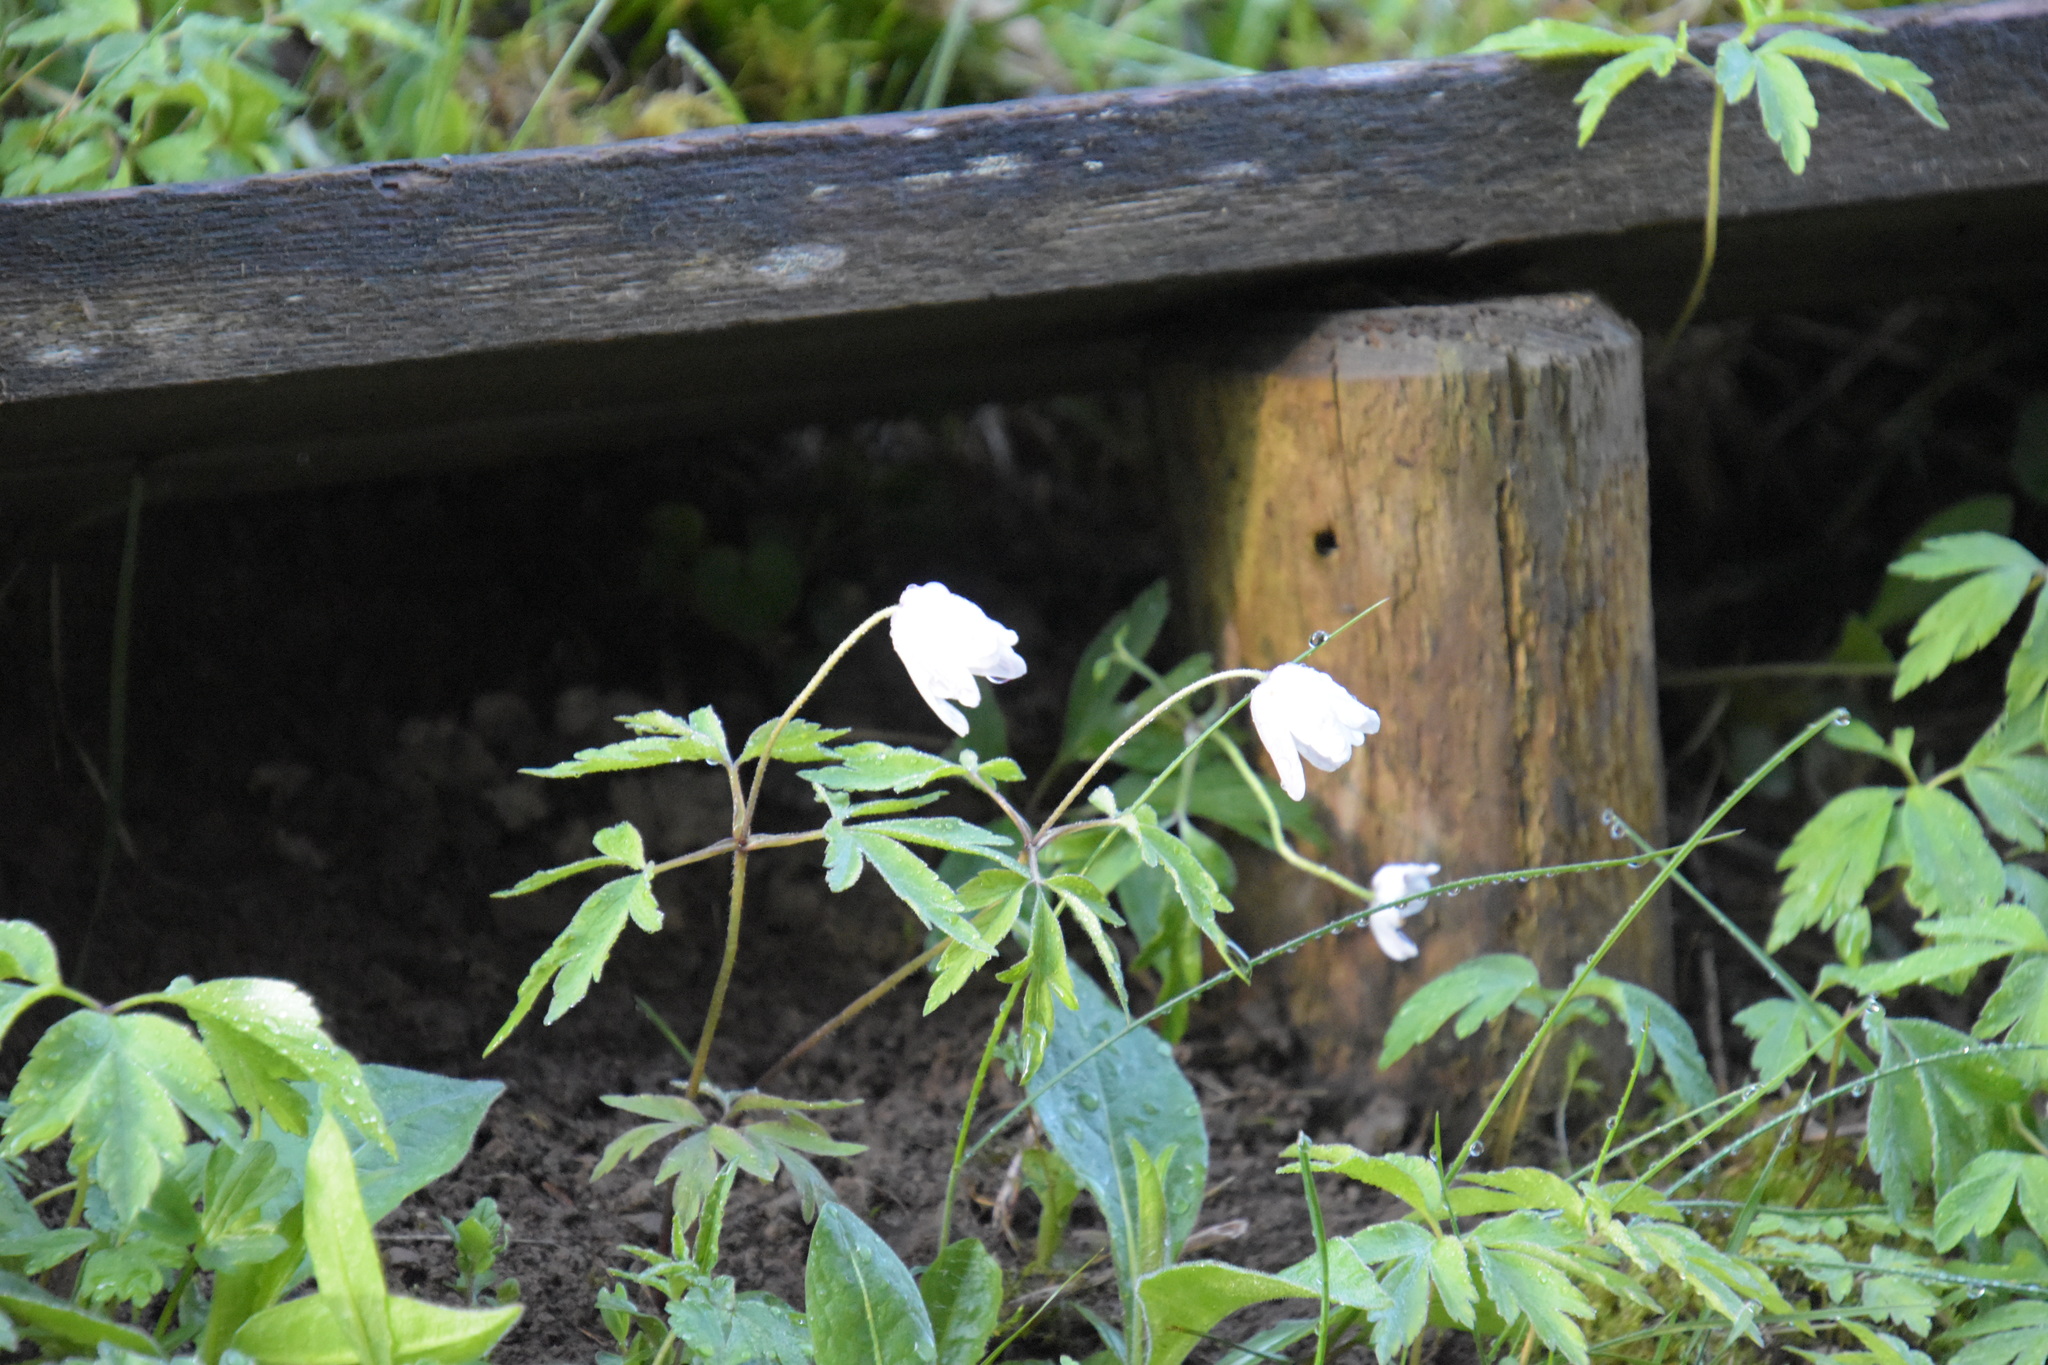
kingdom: Plantae
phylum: Tracheophyta
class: Magnoliopsida
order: Ranunculales
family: Ranunculaceae
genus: Anemone
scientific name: Anemone nemorosa
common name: Wood anemone
